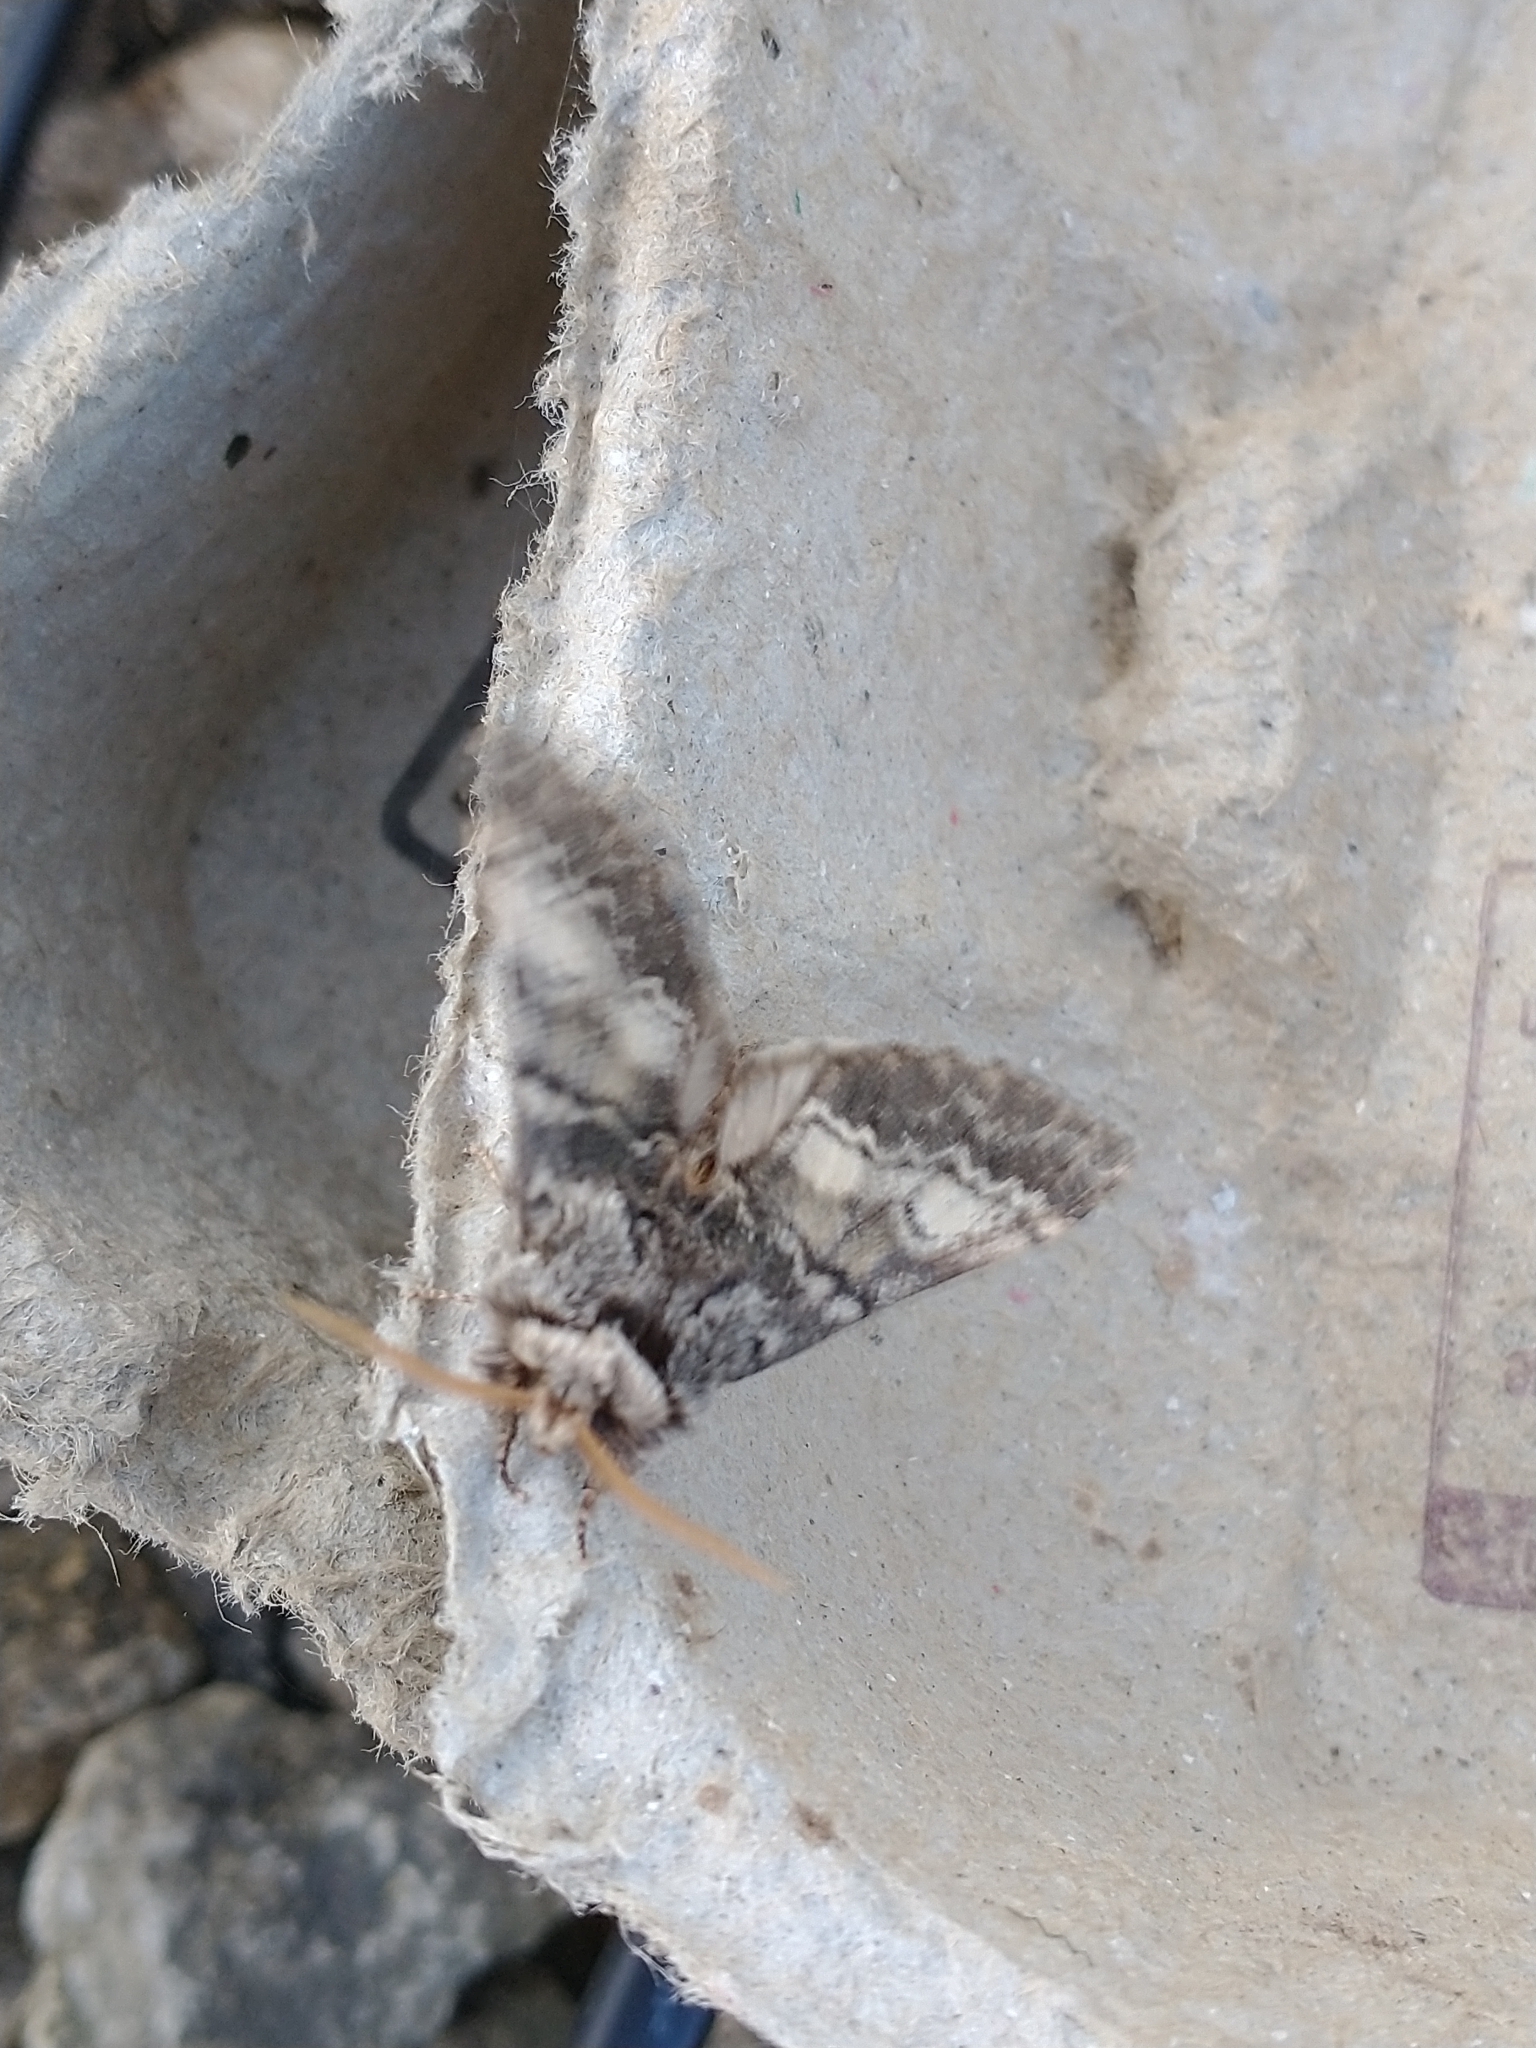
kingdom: Animalia
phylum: Arthropoda
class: Insecta
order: Lepidoptera
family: Notodontidae
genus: Drymonia
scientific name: Drymonia ruficornis
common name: Lunar marbled brown
